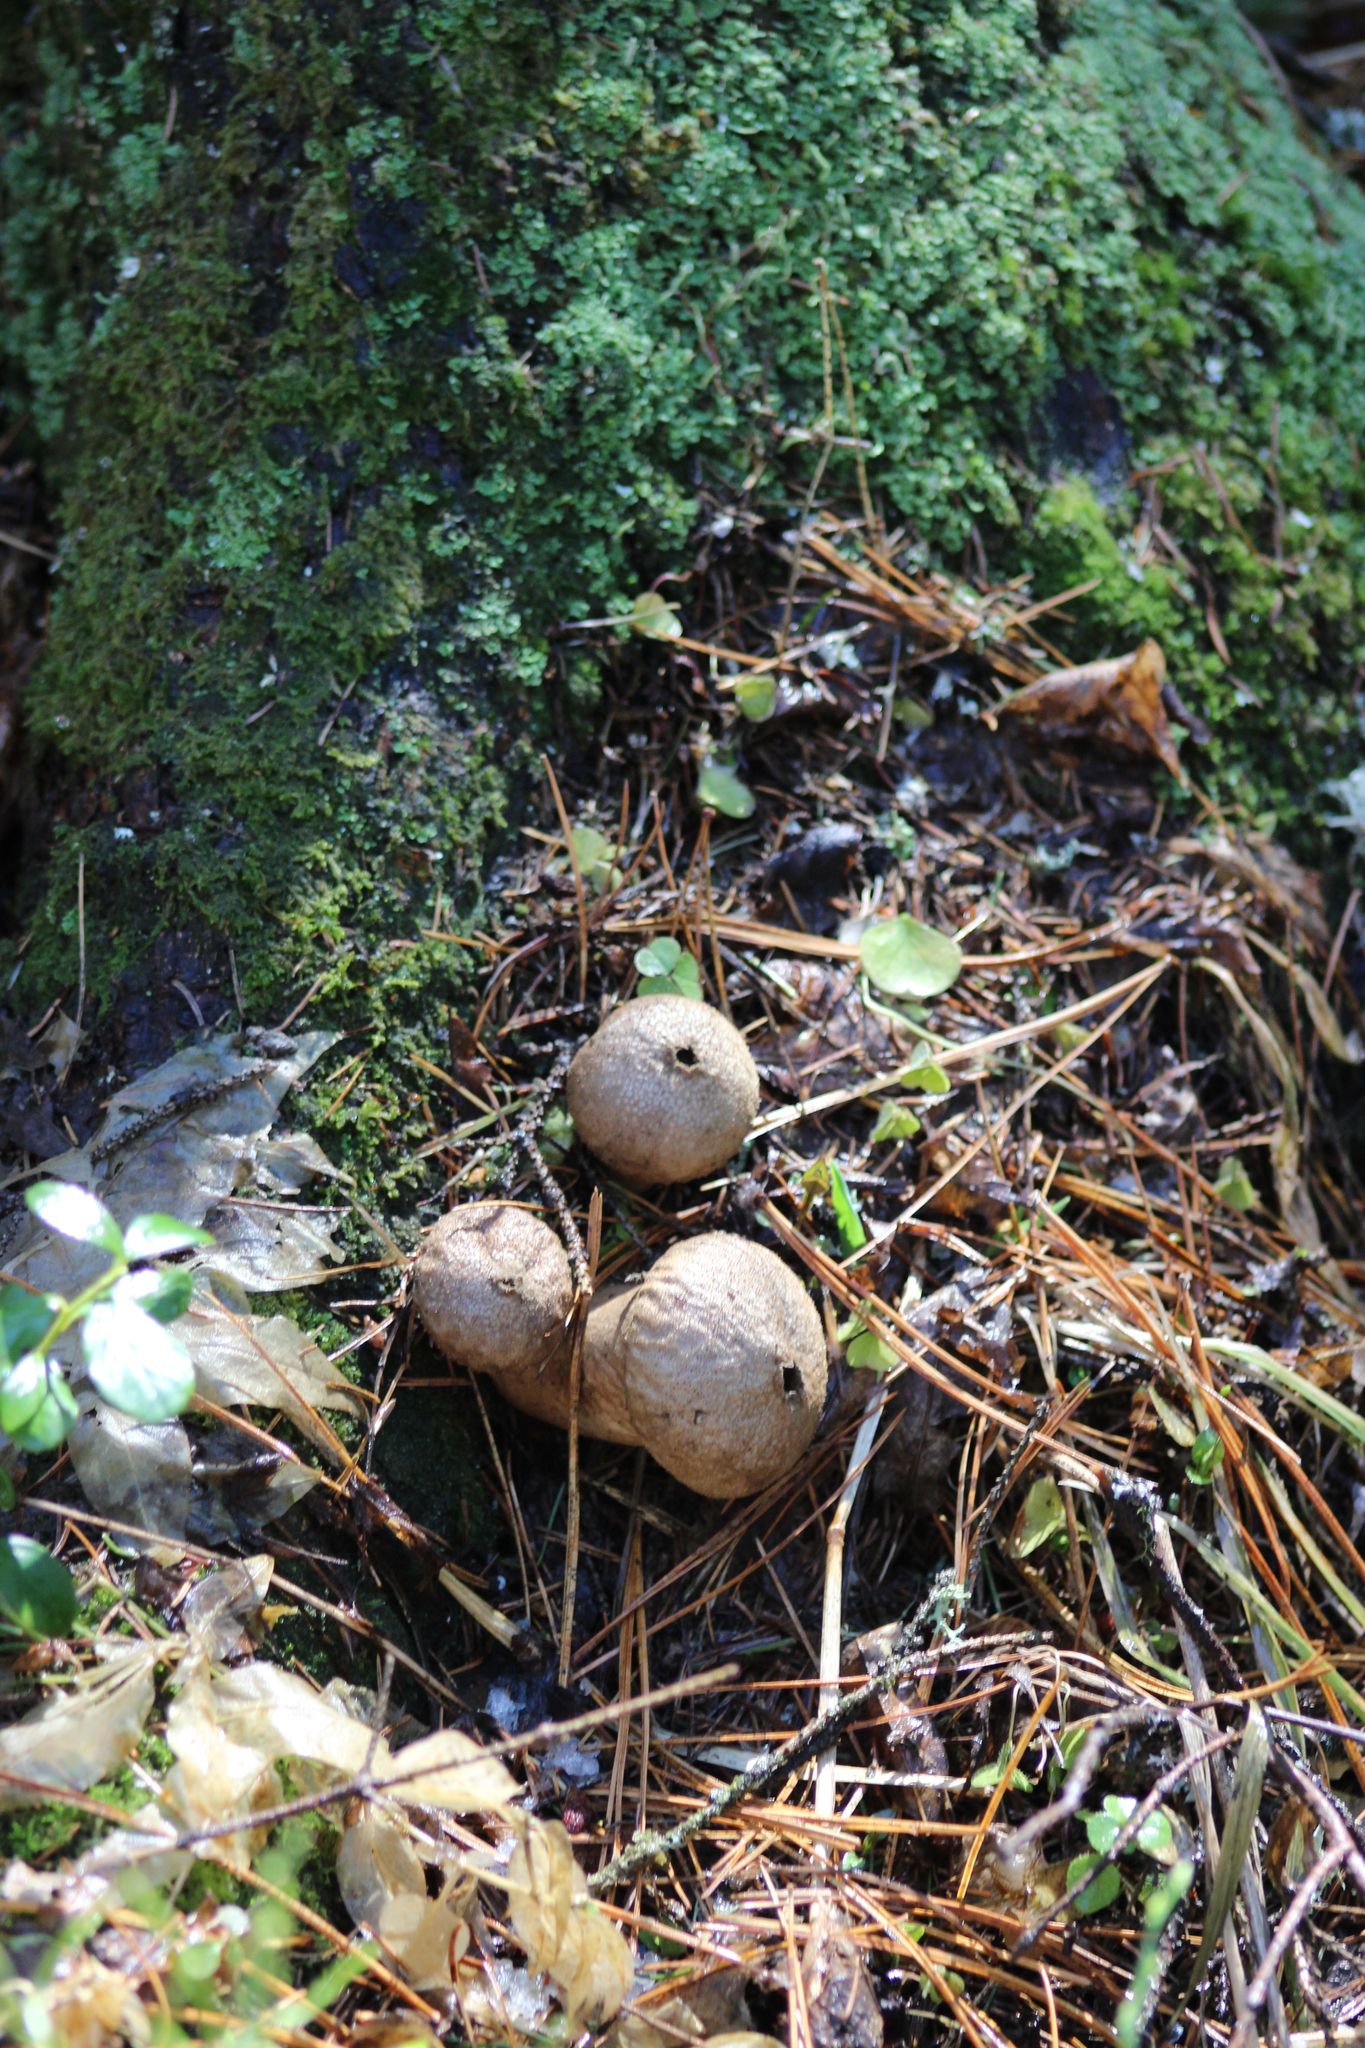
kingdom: Fungi
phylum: Basidiomycota
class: Agaricomycetes
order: Agaricales
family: Lycoperdaceae
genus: Lycoperdon
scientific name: Lycoperdon perlatum
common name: Common puffball
